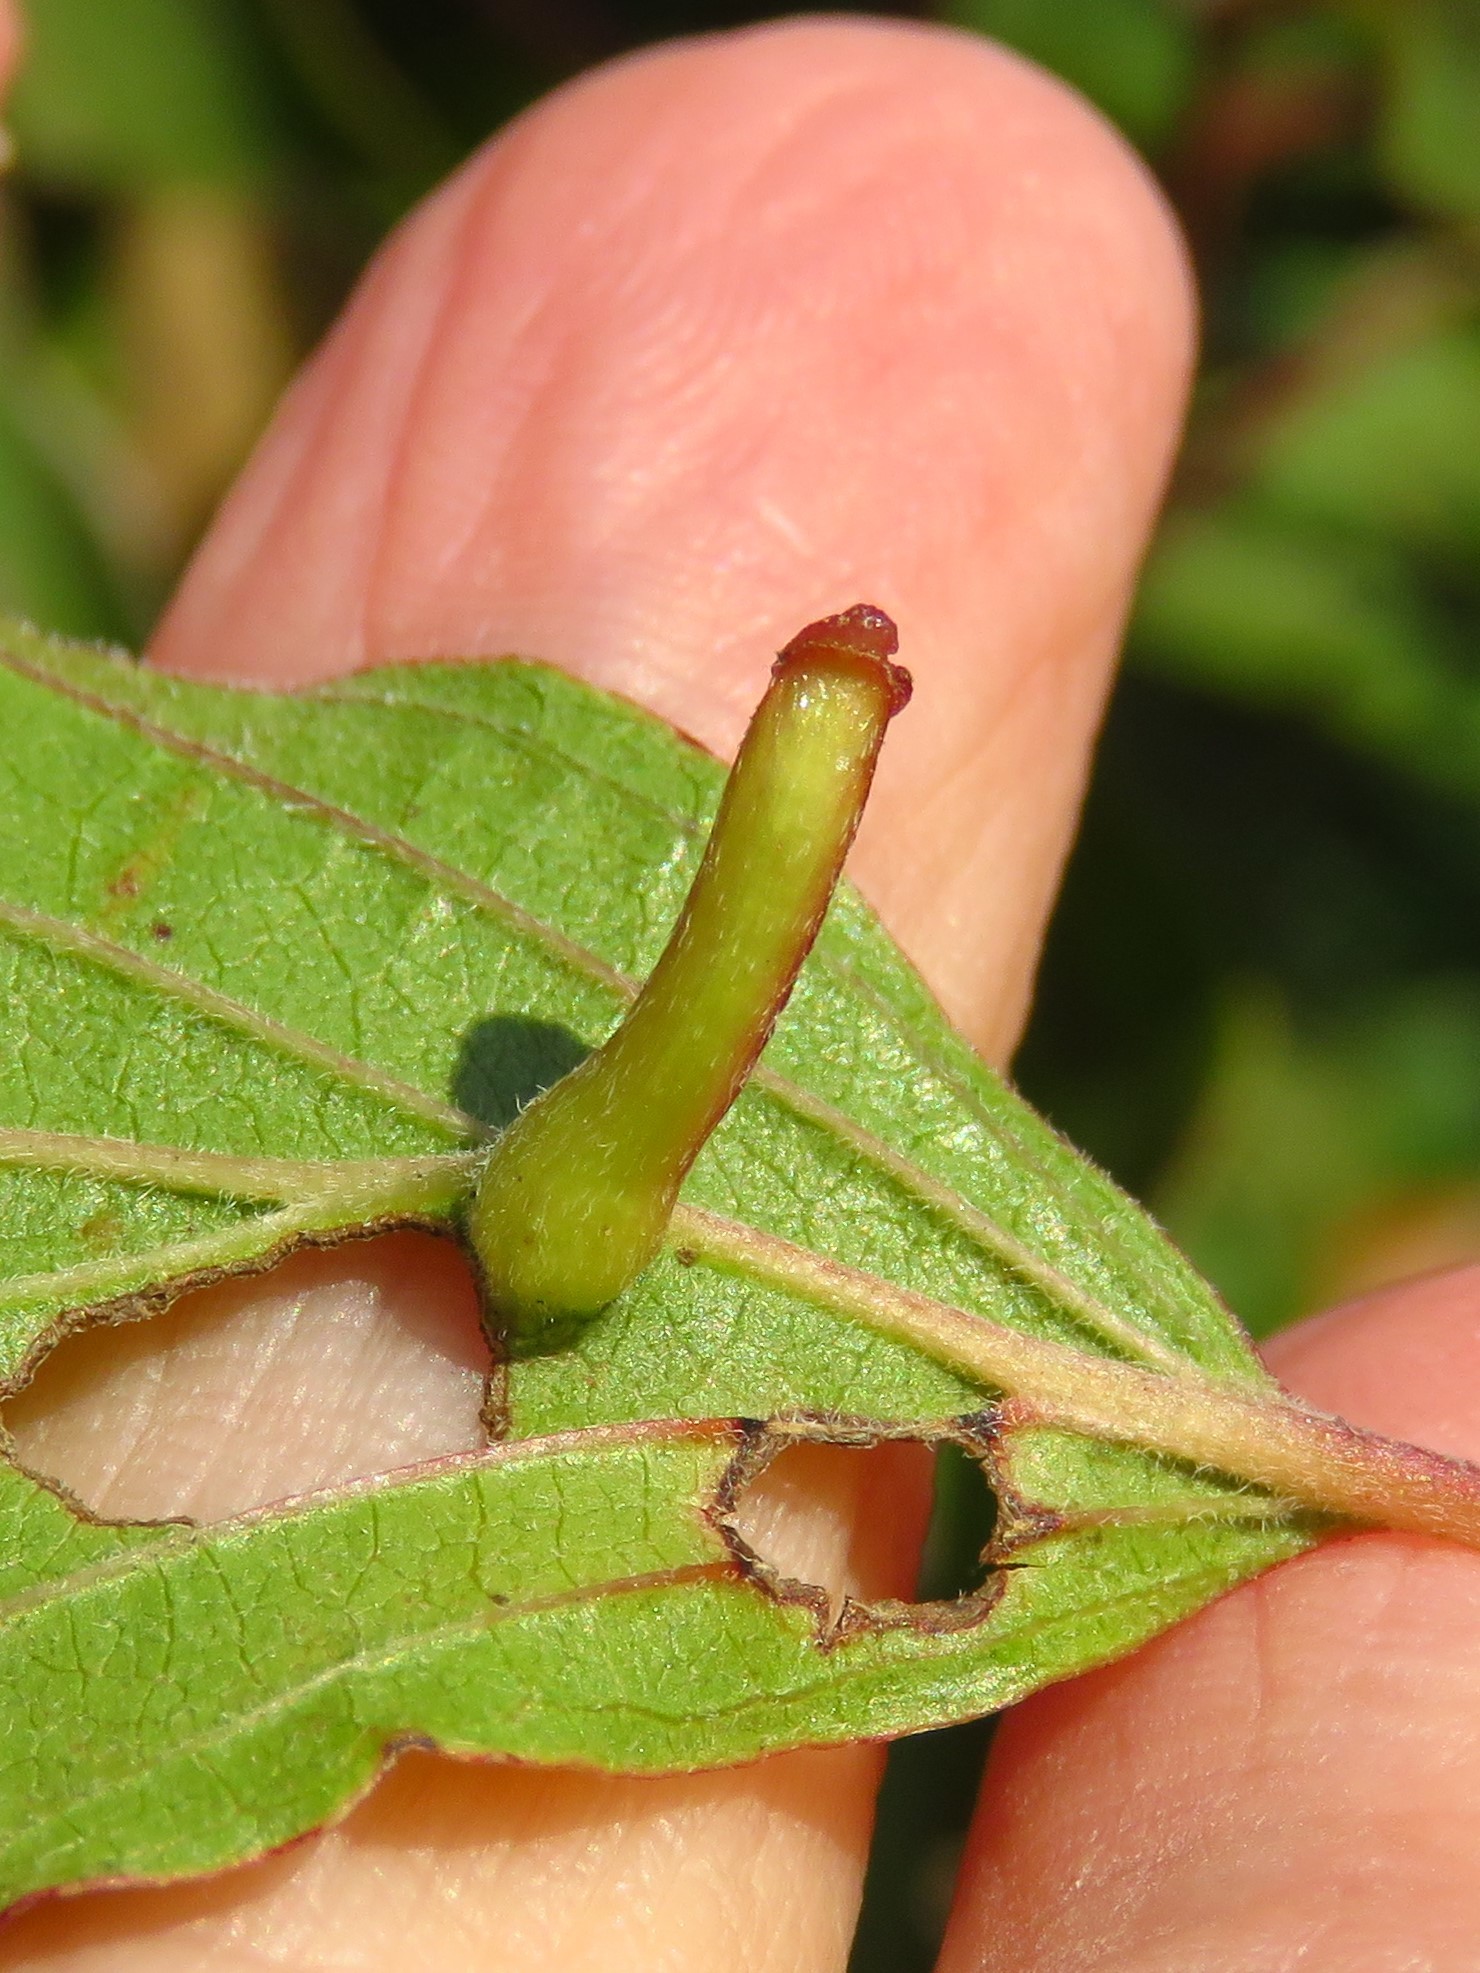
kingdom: Animalia
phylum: Arthropoda
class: Insecta
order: Diptera
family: Cecidomyiidae
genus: Dasineura
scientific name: Dasineura tuba
